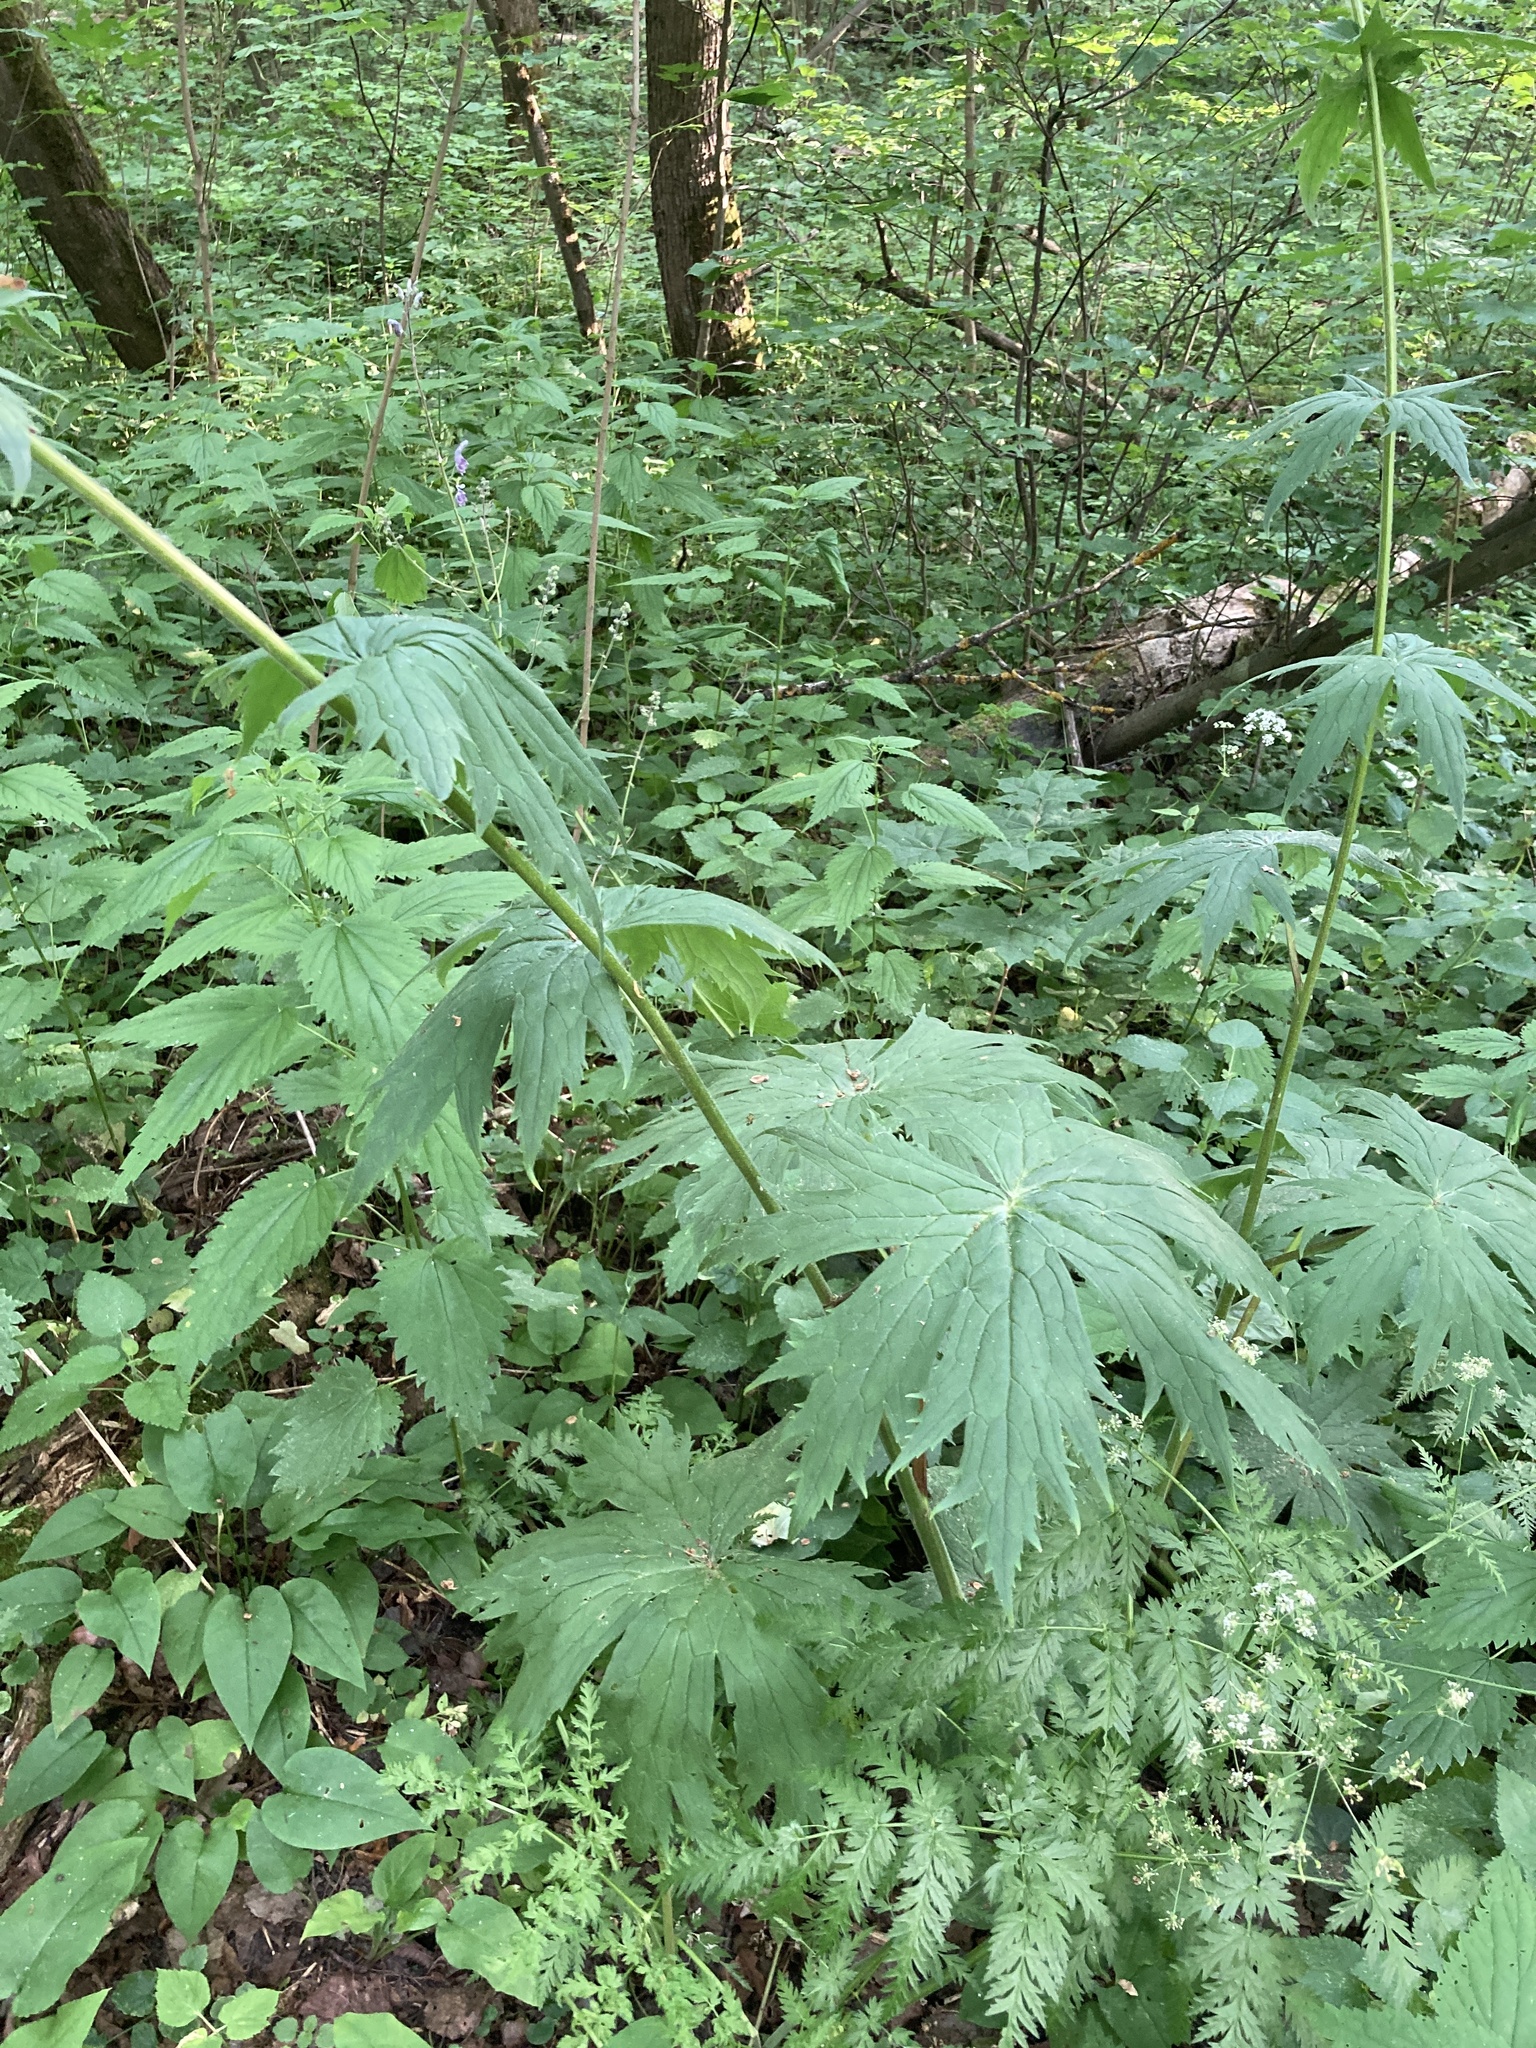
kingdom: Plantae
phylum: Tracheophyta
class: Magnoliopsida
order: Ranunculales
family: Ranunculaceae
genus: Aconitum
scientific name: Aconitum septentrionale
